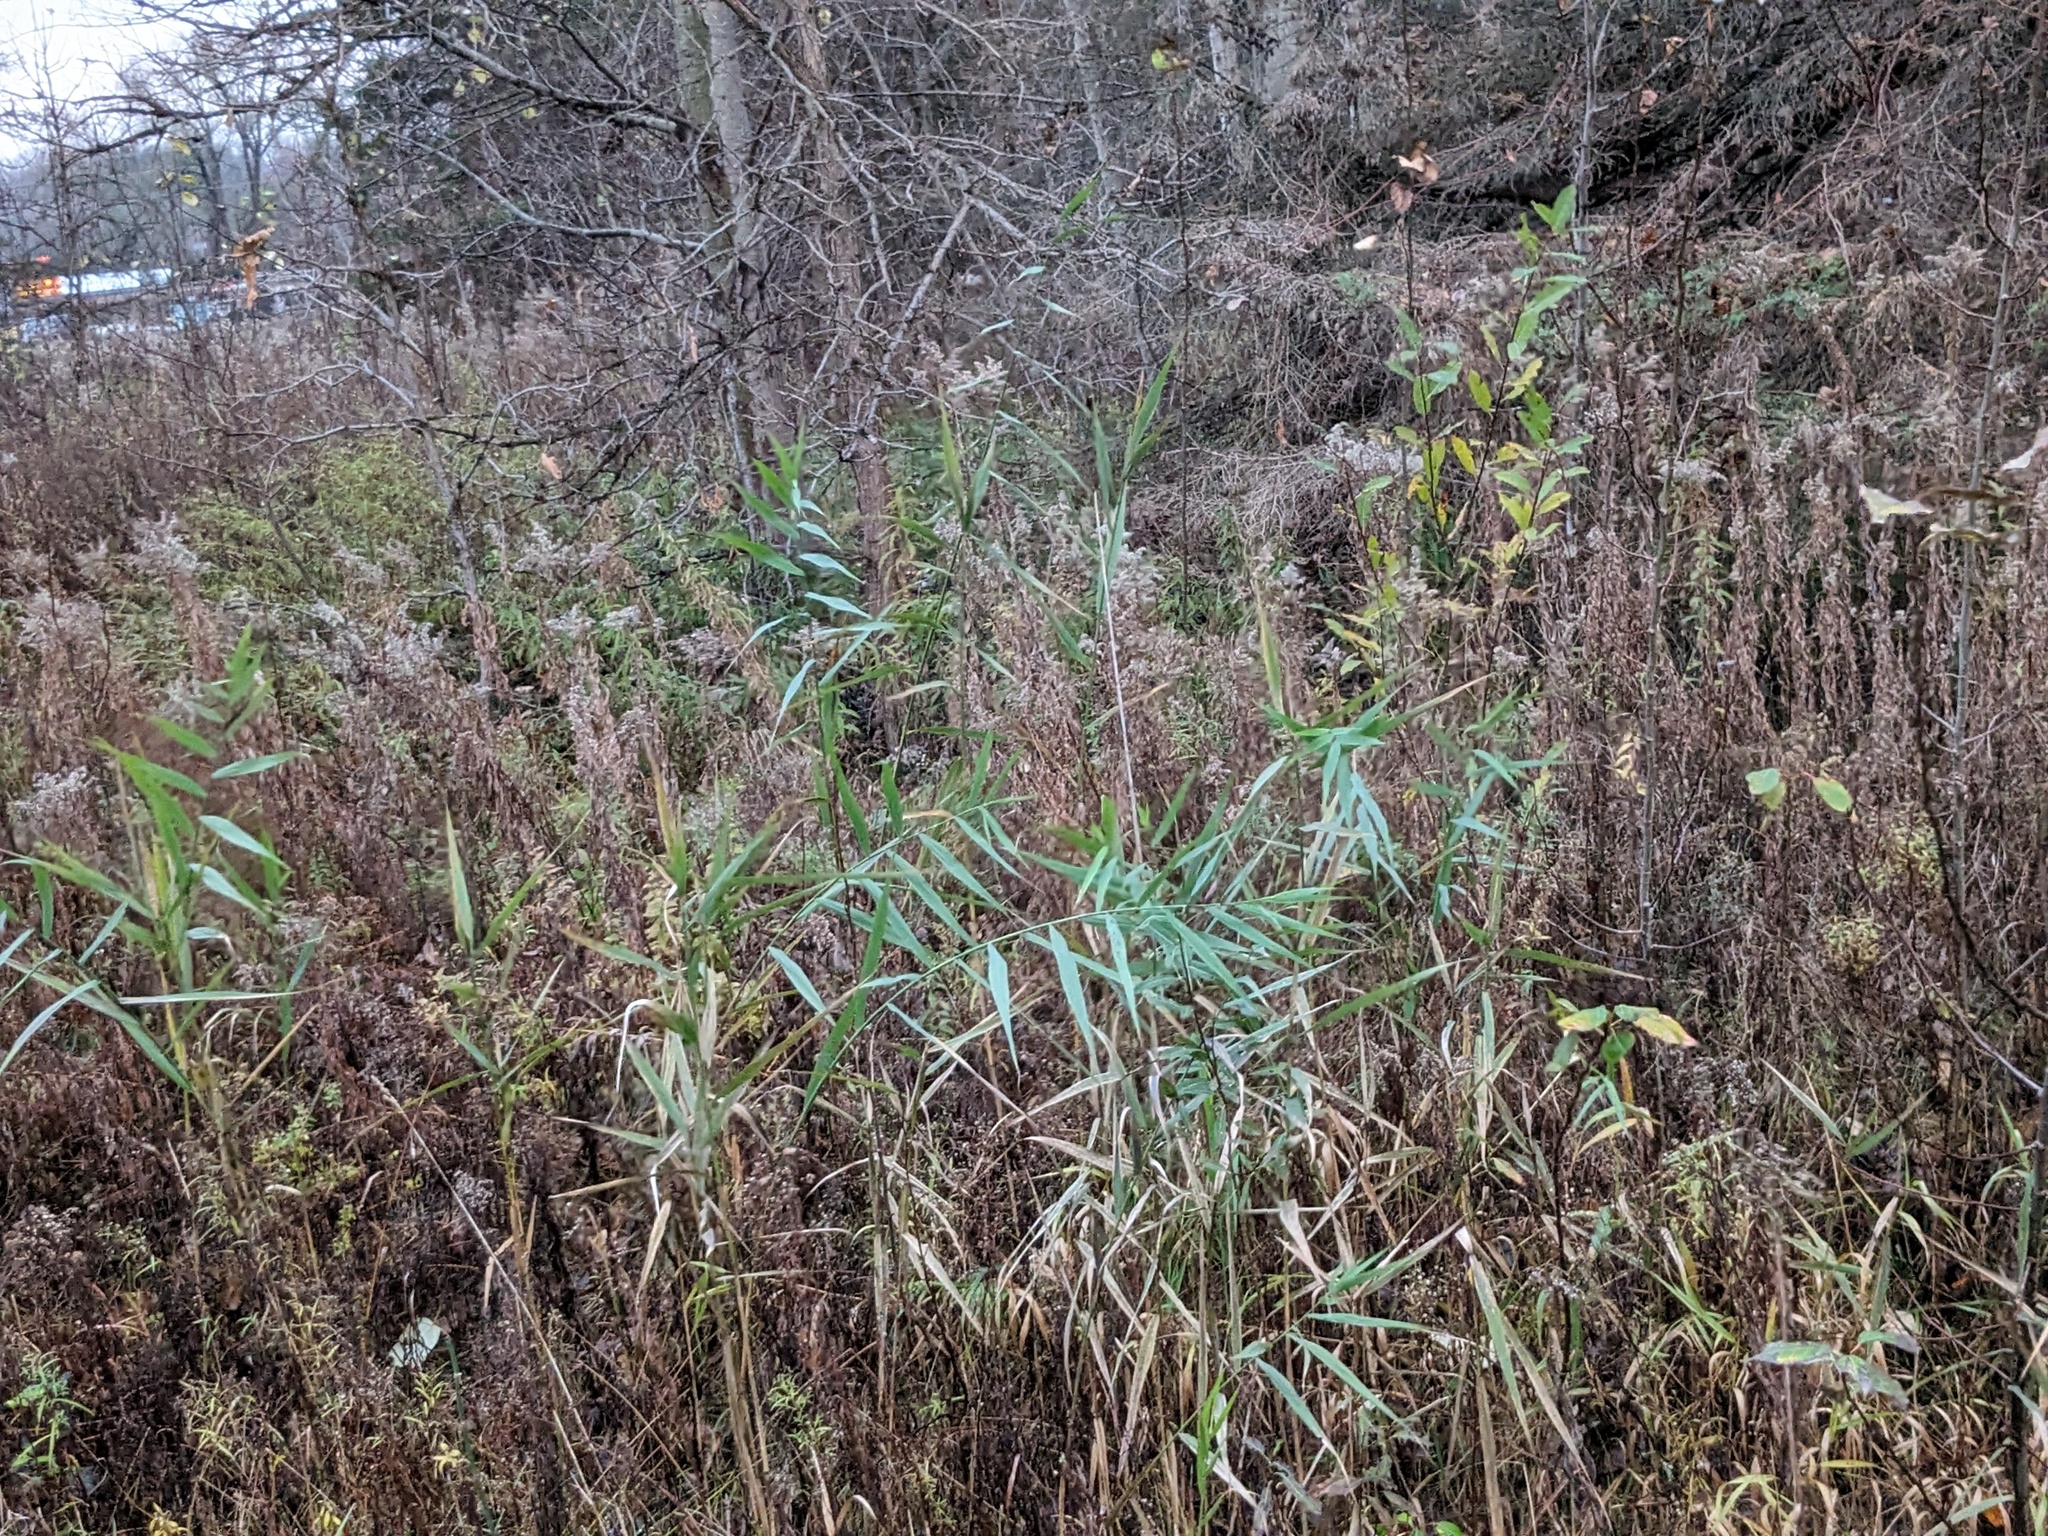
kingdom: Plantae
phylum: Tracheophyta
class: Liliopsida
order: Poales
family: Poaceae
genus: Phragmites
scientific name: Phragmites australis
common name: Common reed
